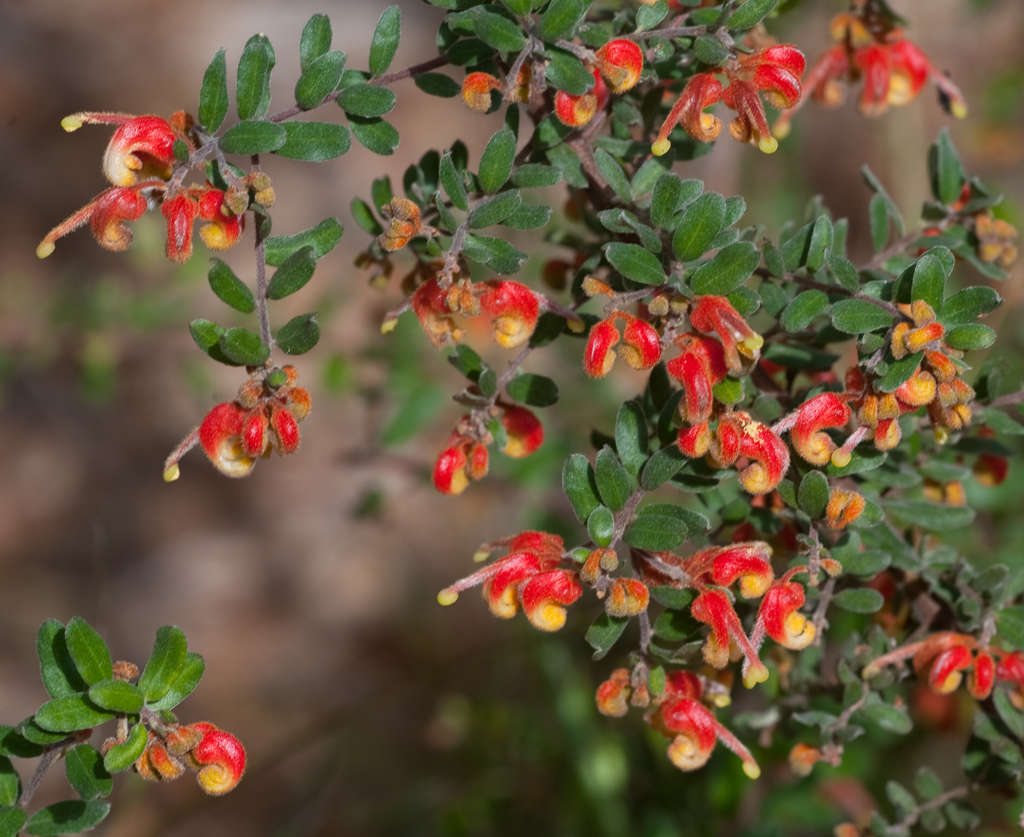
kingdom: Plantae
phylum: Tracheophyta
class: Magnoliopsida
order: Proteales
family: Proteaceae
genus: Grevillea
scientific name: Grevillea alpina
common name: Catclaws grevillea
